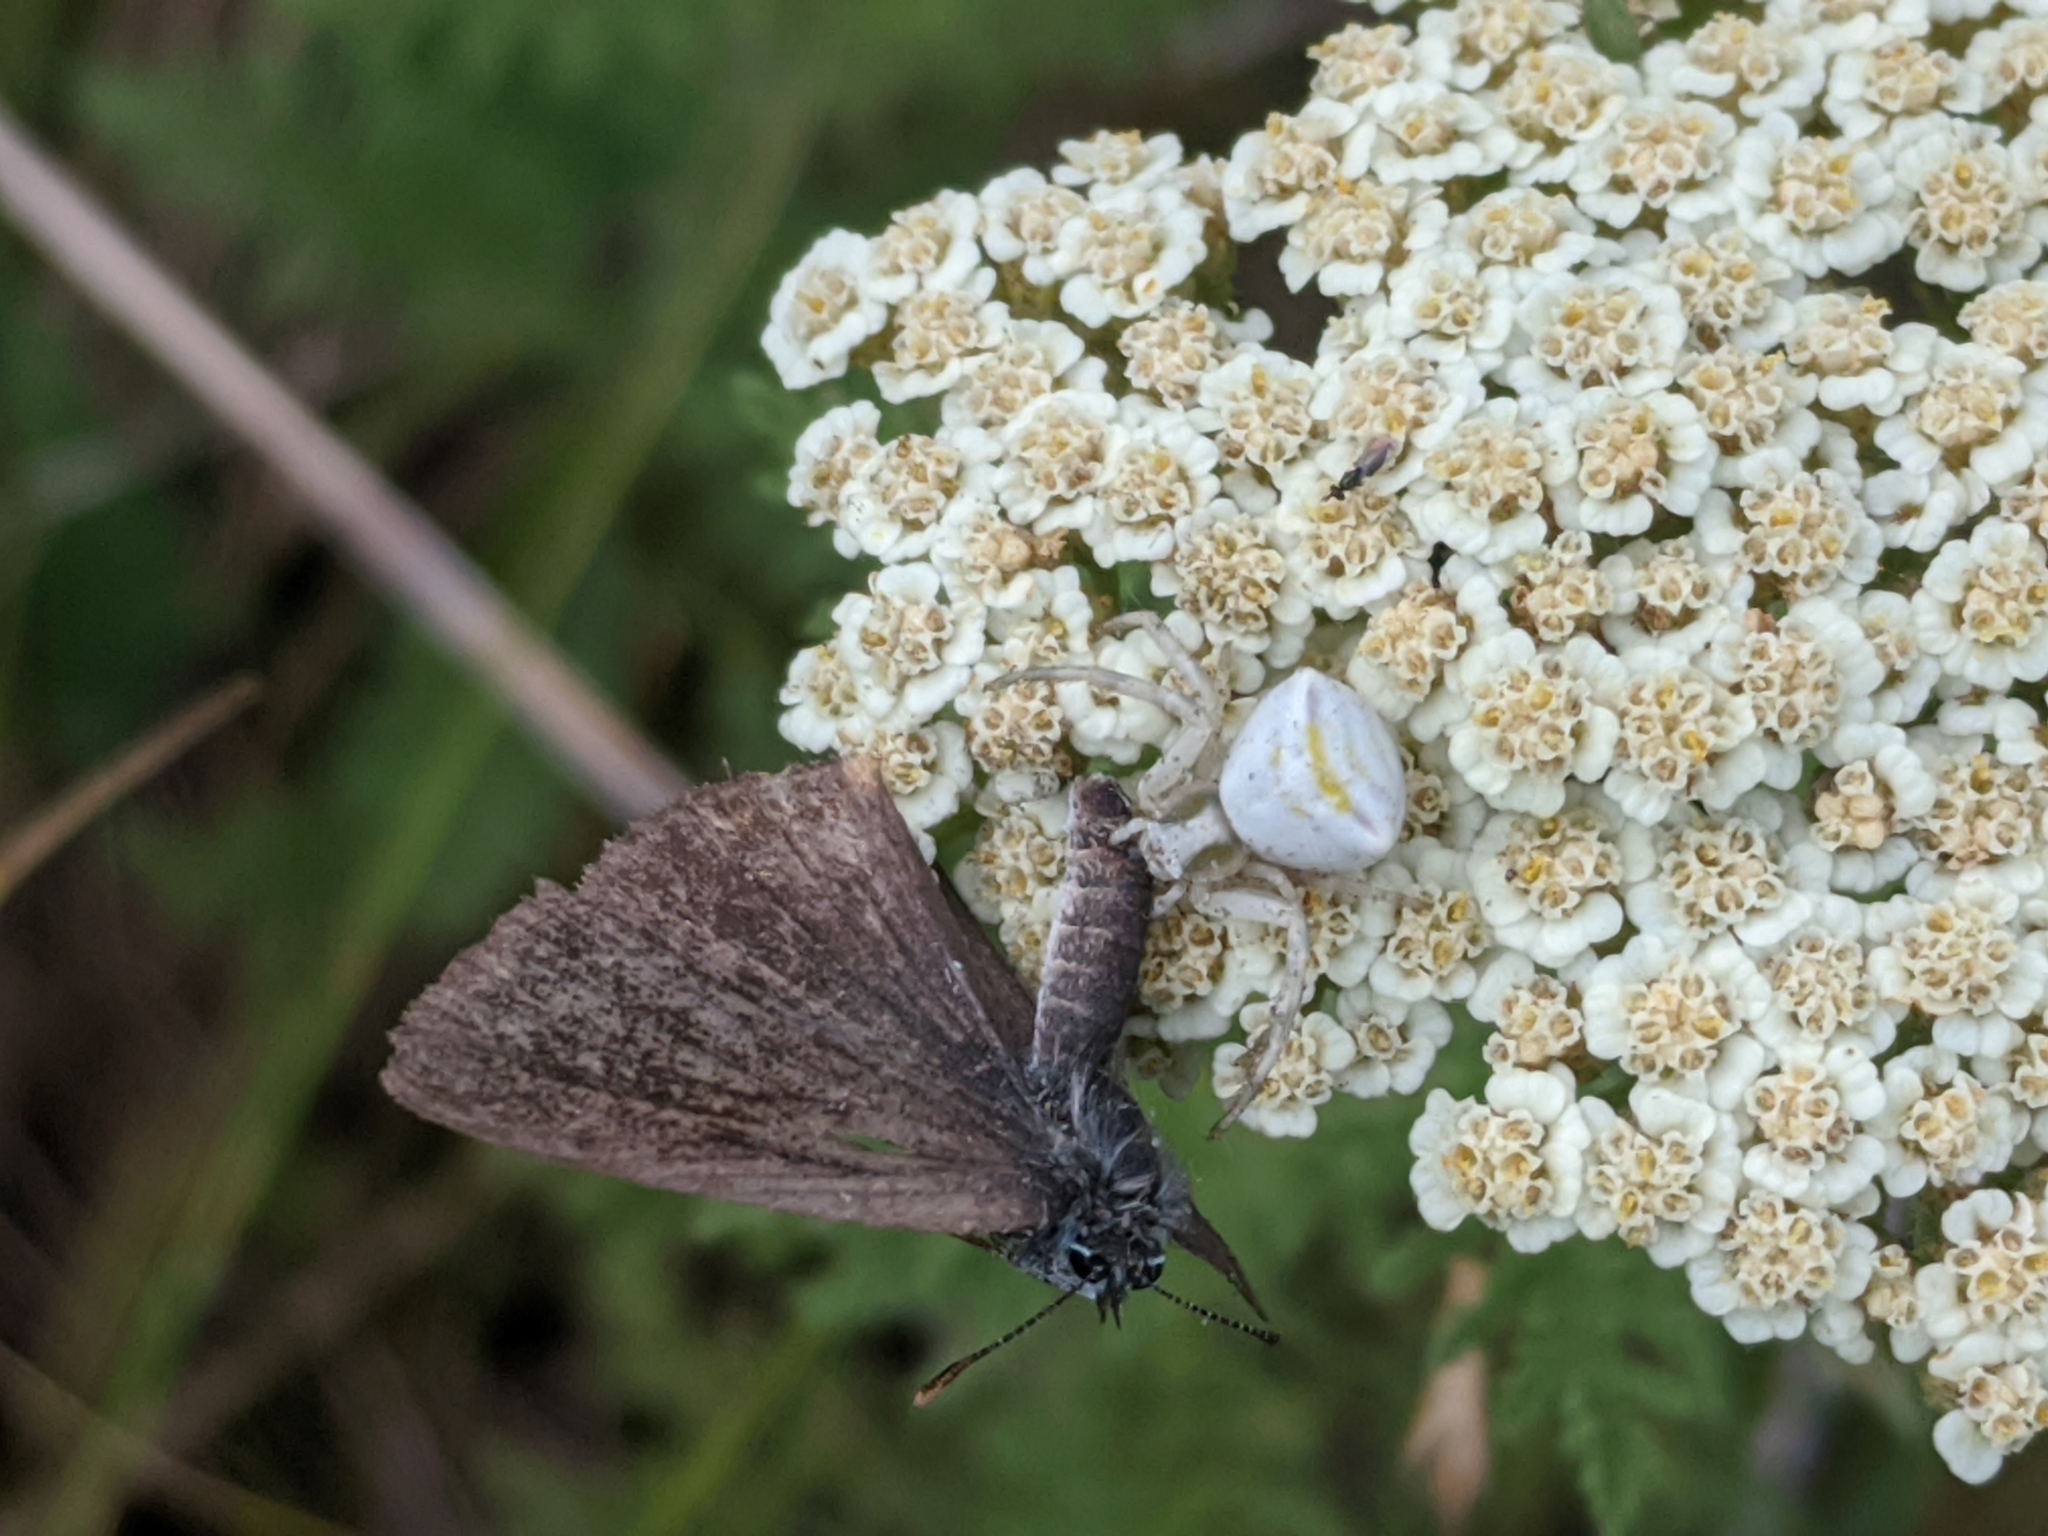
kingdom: Animalia
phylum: Arthropoda
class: Arachnida
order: Araneae
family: Thomisidae
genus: Thomisus
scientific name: Thomisus onustus
